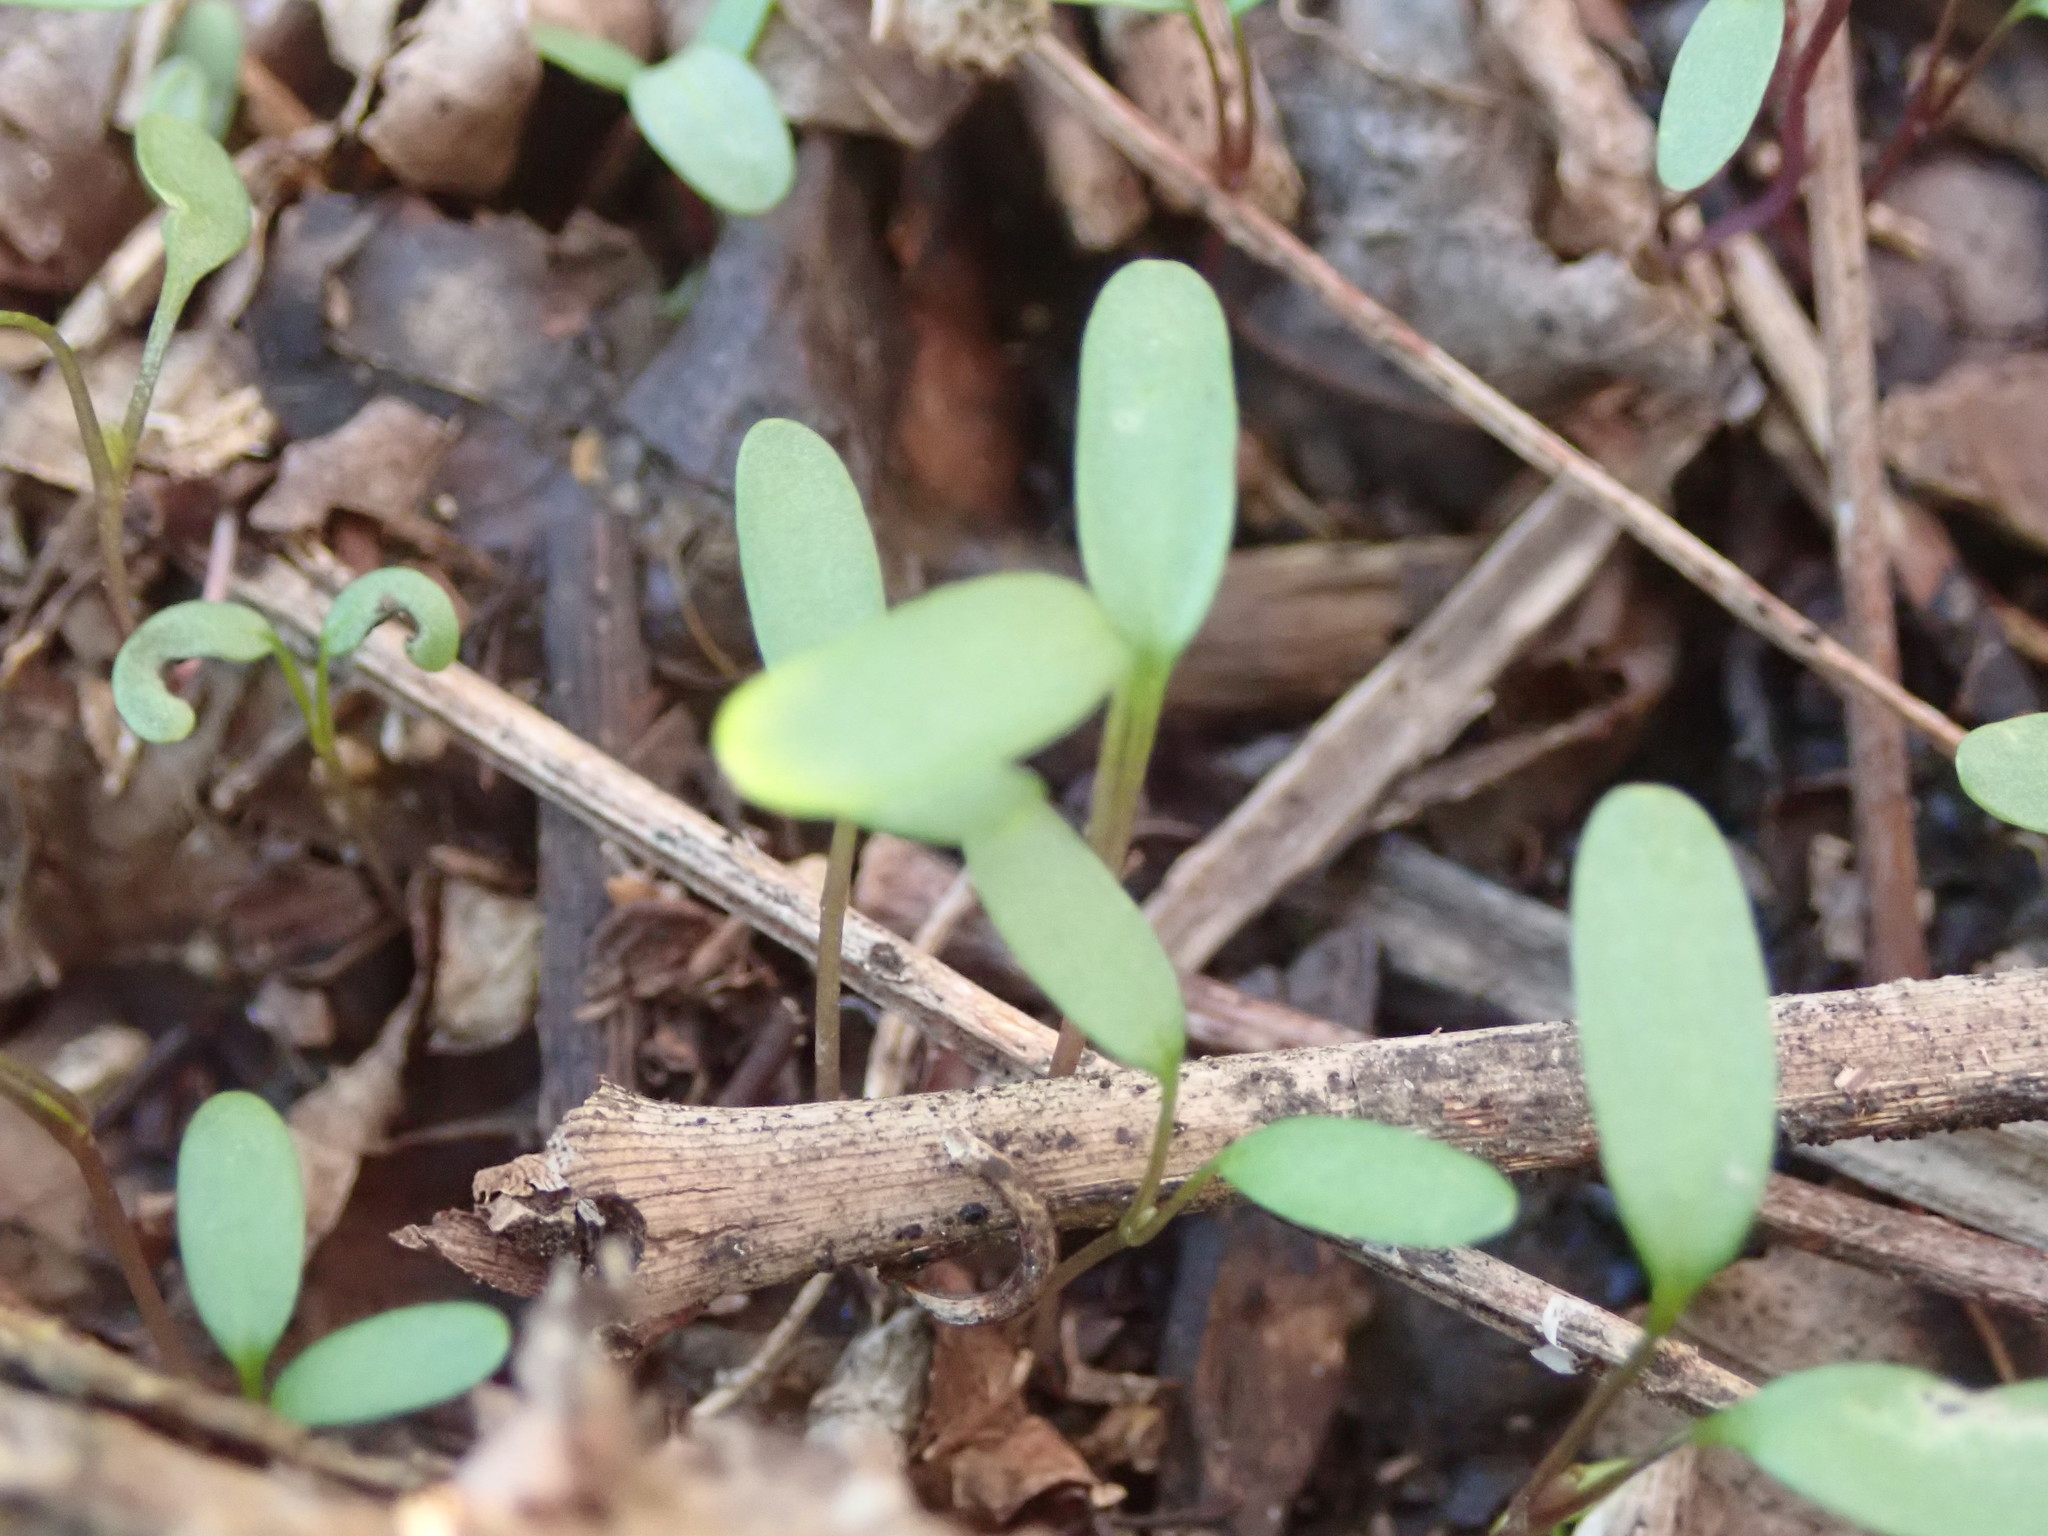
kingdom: Plantae
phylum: Tracheophyta
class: Magnoliopsida
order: Brassicales
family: Brassicaceae
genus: Alliaria
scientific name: Alliaria petiolata
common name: Garlic mustard
